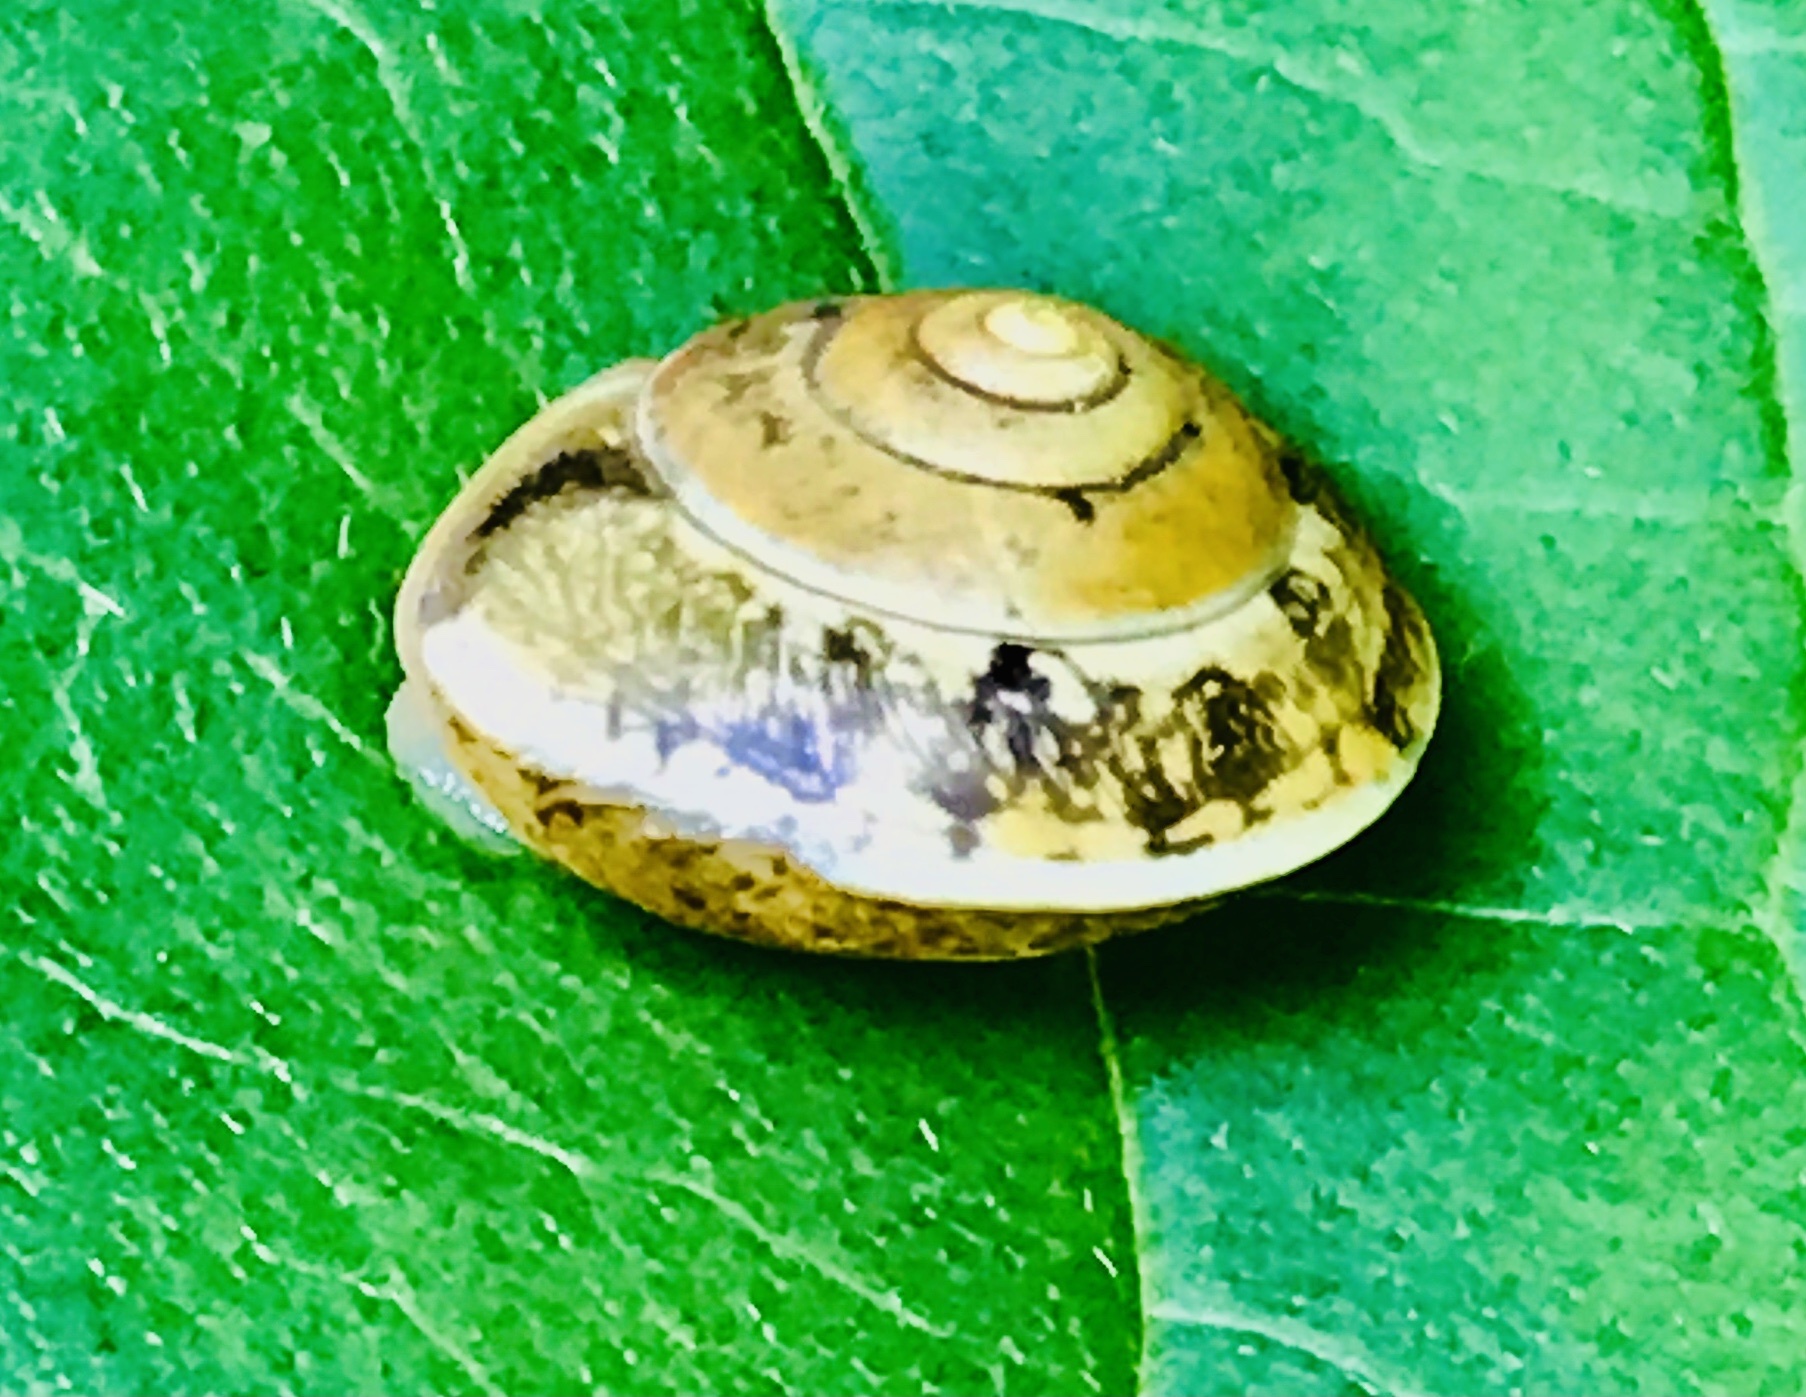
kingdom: Animalia
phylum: Mollusca
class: Gastropoda
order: Stylommatophora
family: Hygromiidae
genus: Hygromia
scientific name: Hygromia cinctella
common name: Girdled snail
